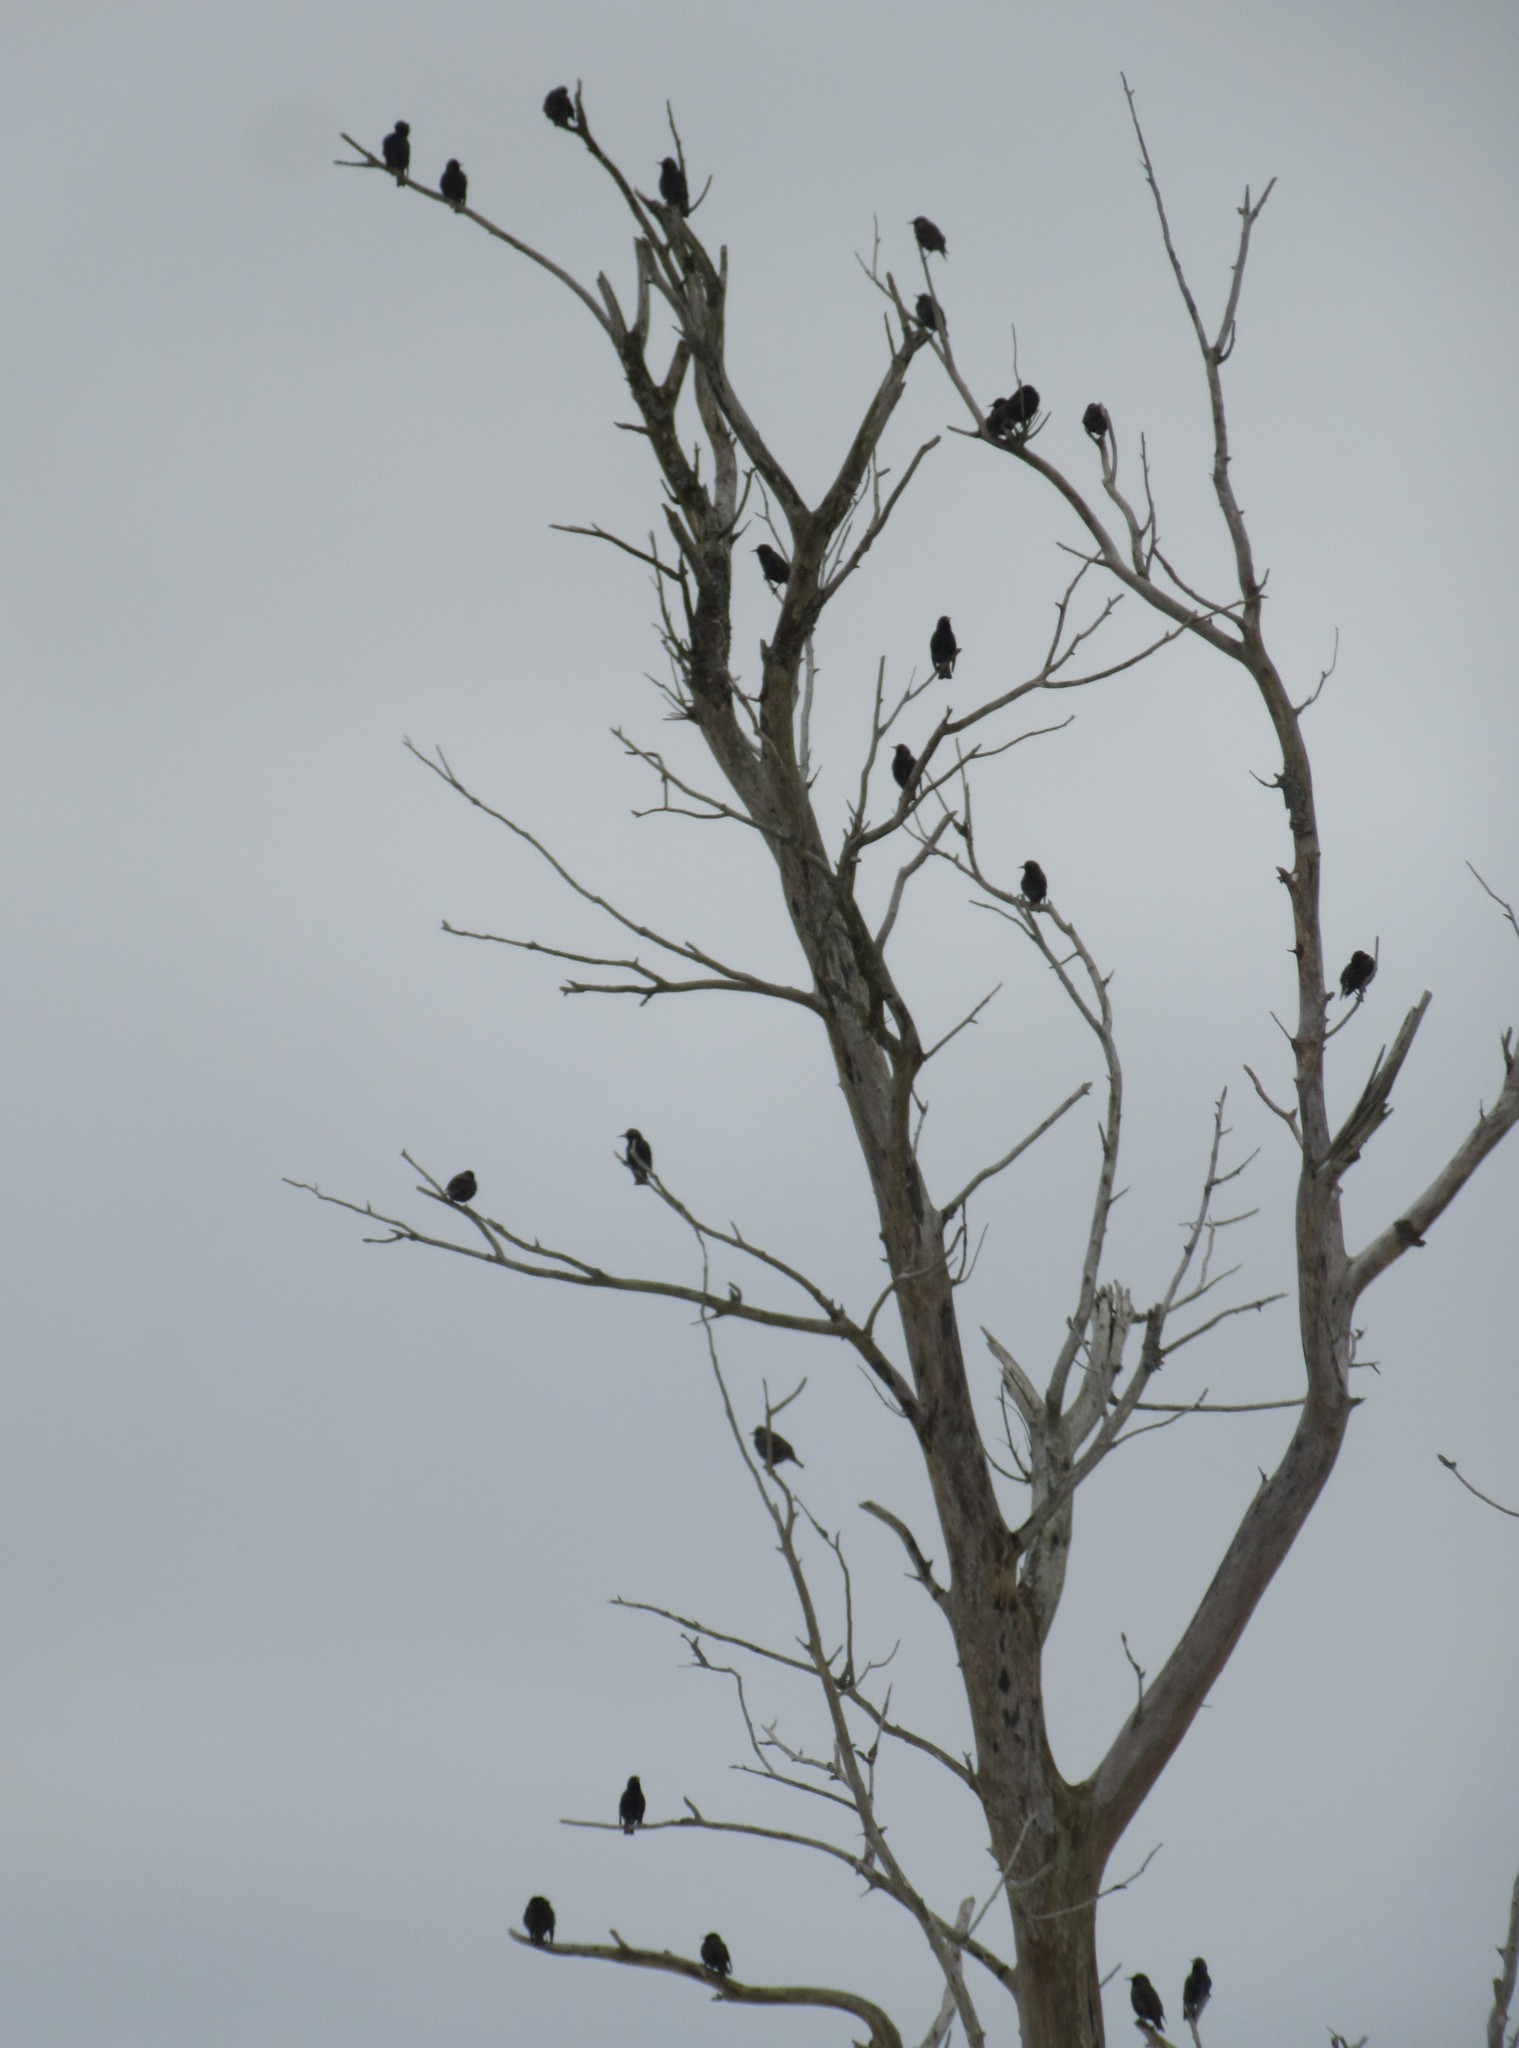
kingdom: Animalia
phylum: Chordata
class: Aves
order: Passeriformes
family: Sturnidae
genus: Sturnus
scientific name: Sturnus vulgaris
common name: Common starling
